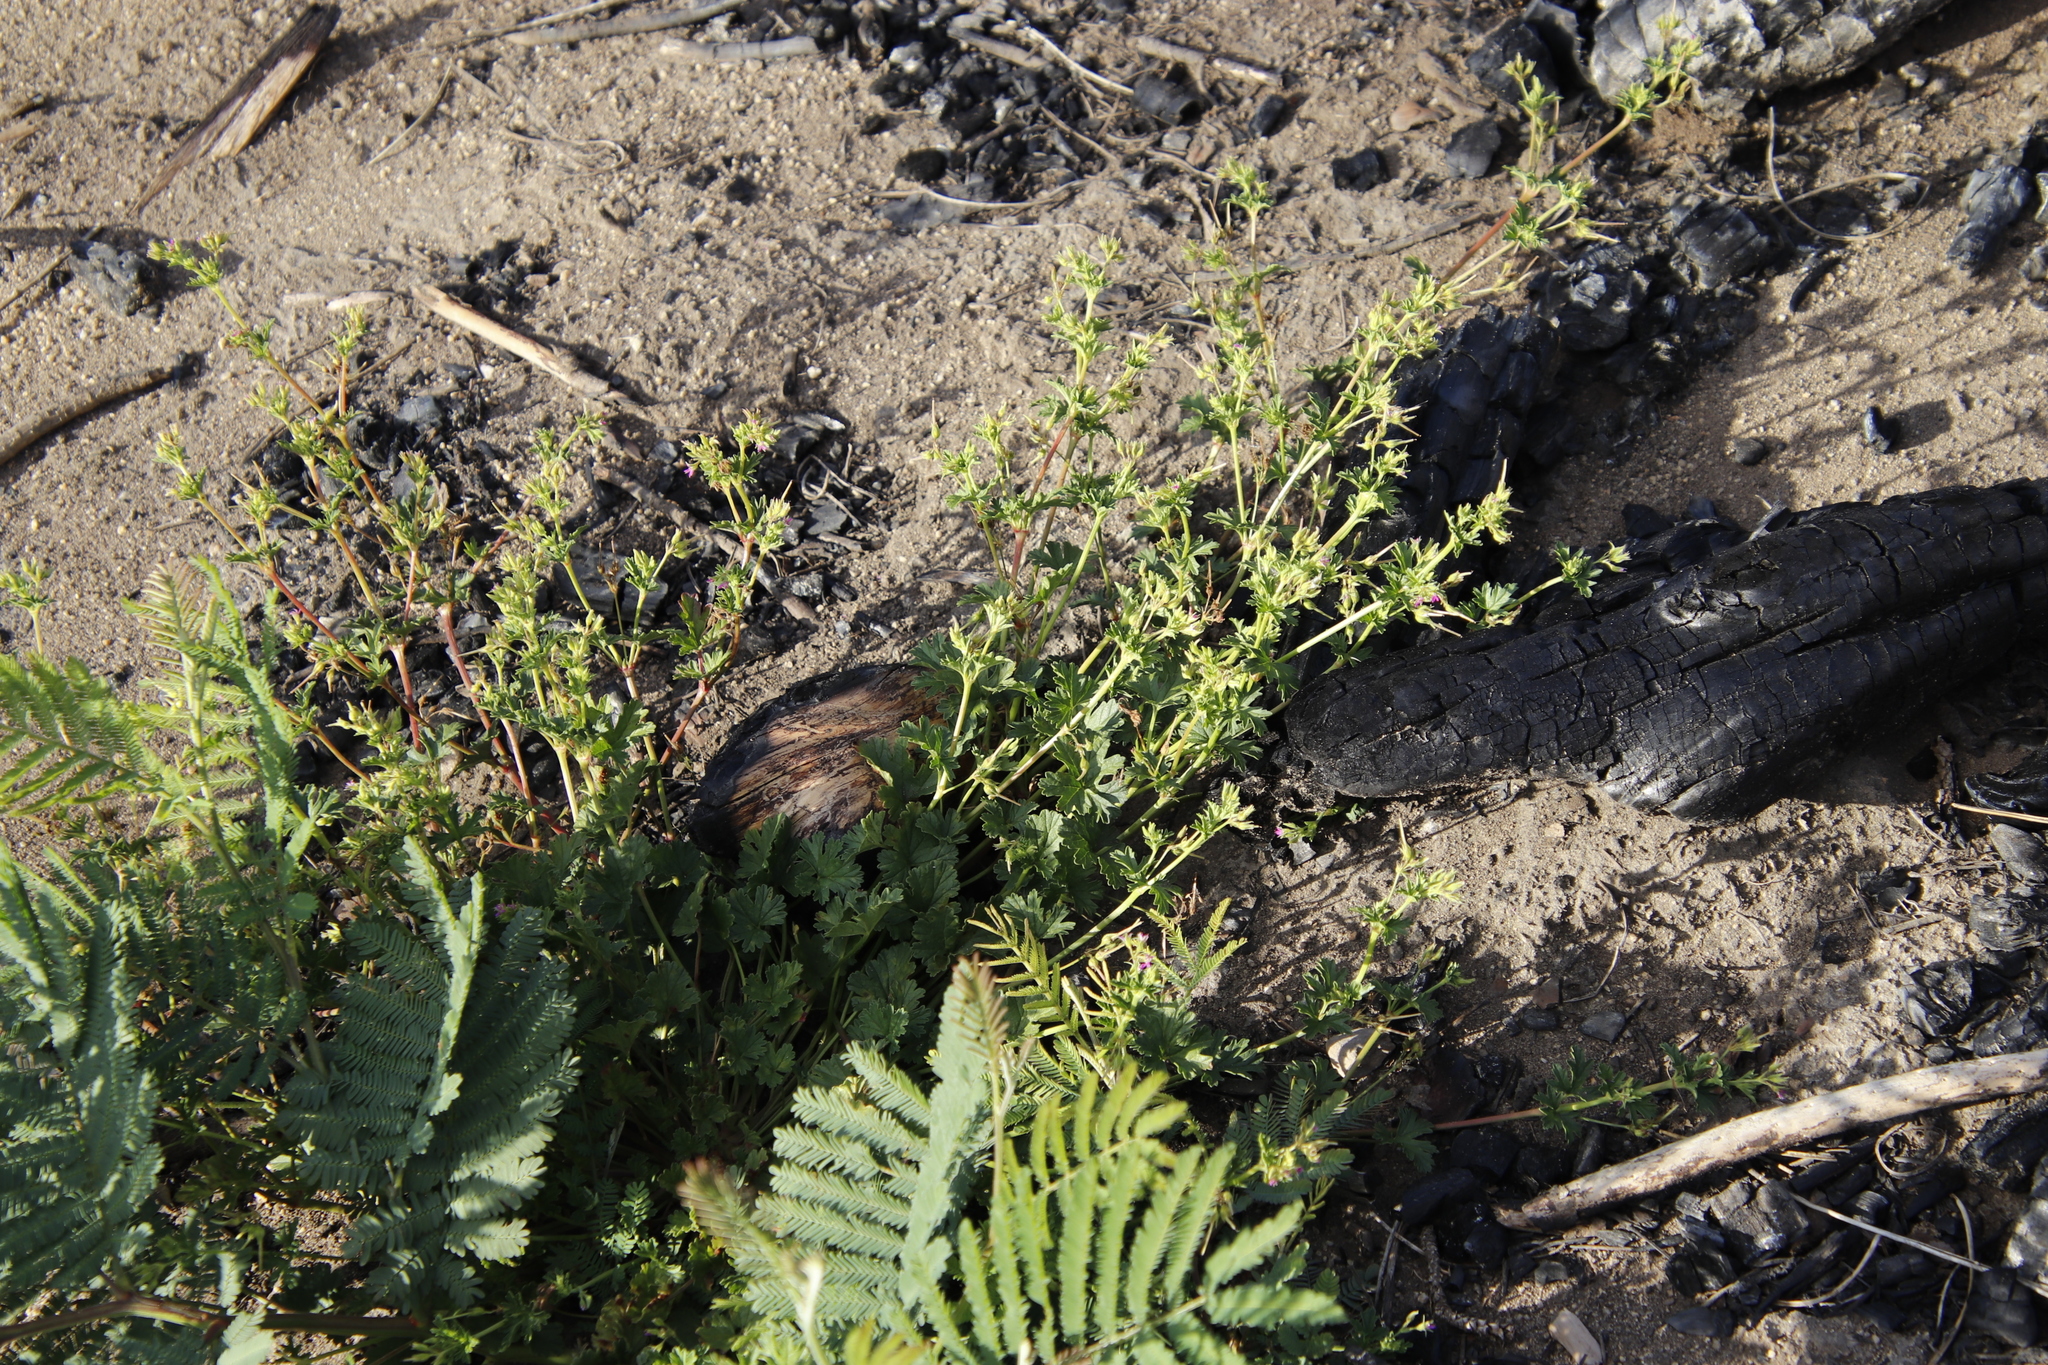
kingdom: Plantae
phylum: Tracheophyta
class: Magnoliopsida
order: Geraniales
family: Geraniaceae
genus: Pelargonium
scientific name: Pelargonium grossularioides
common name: Gooseberry geranium
